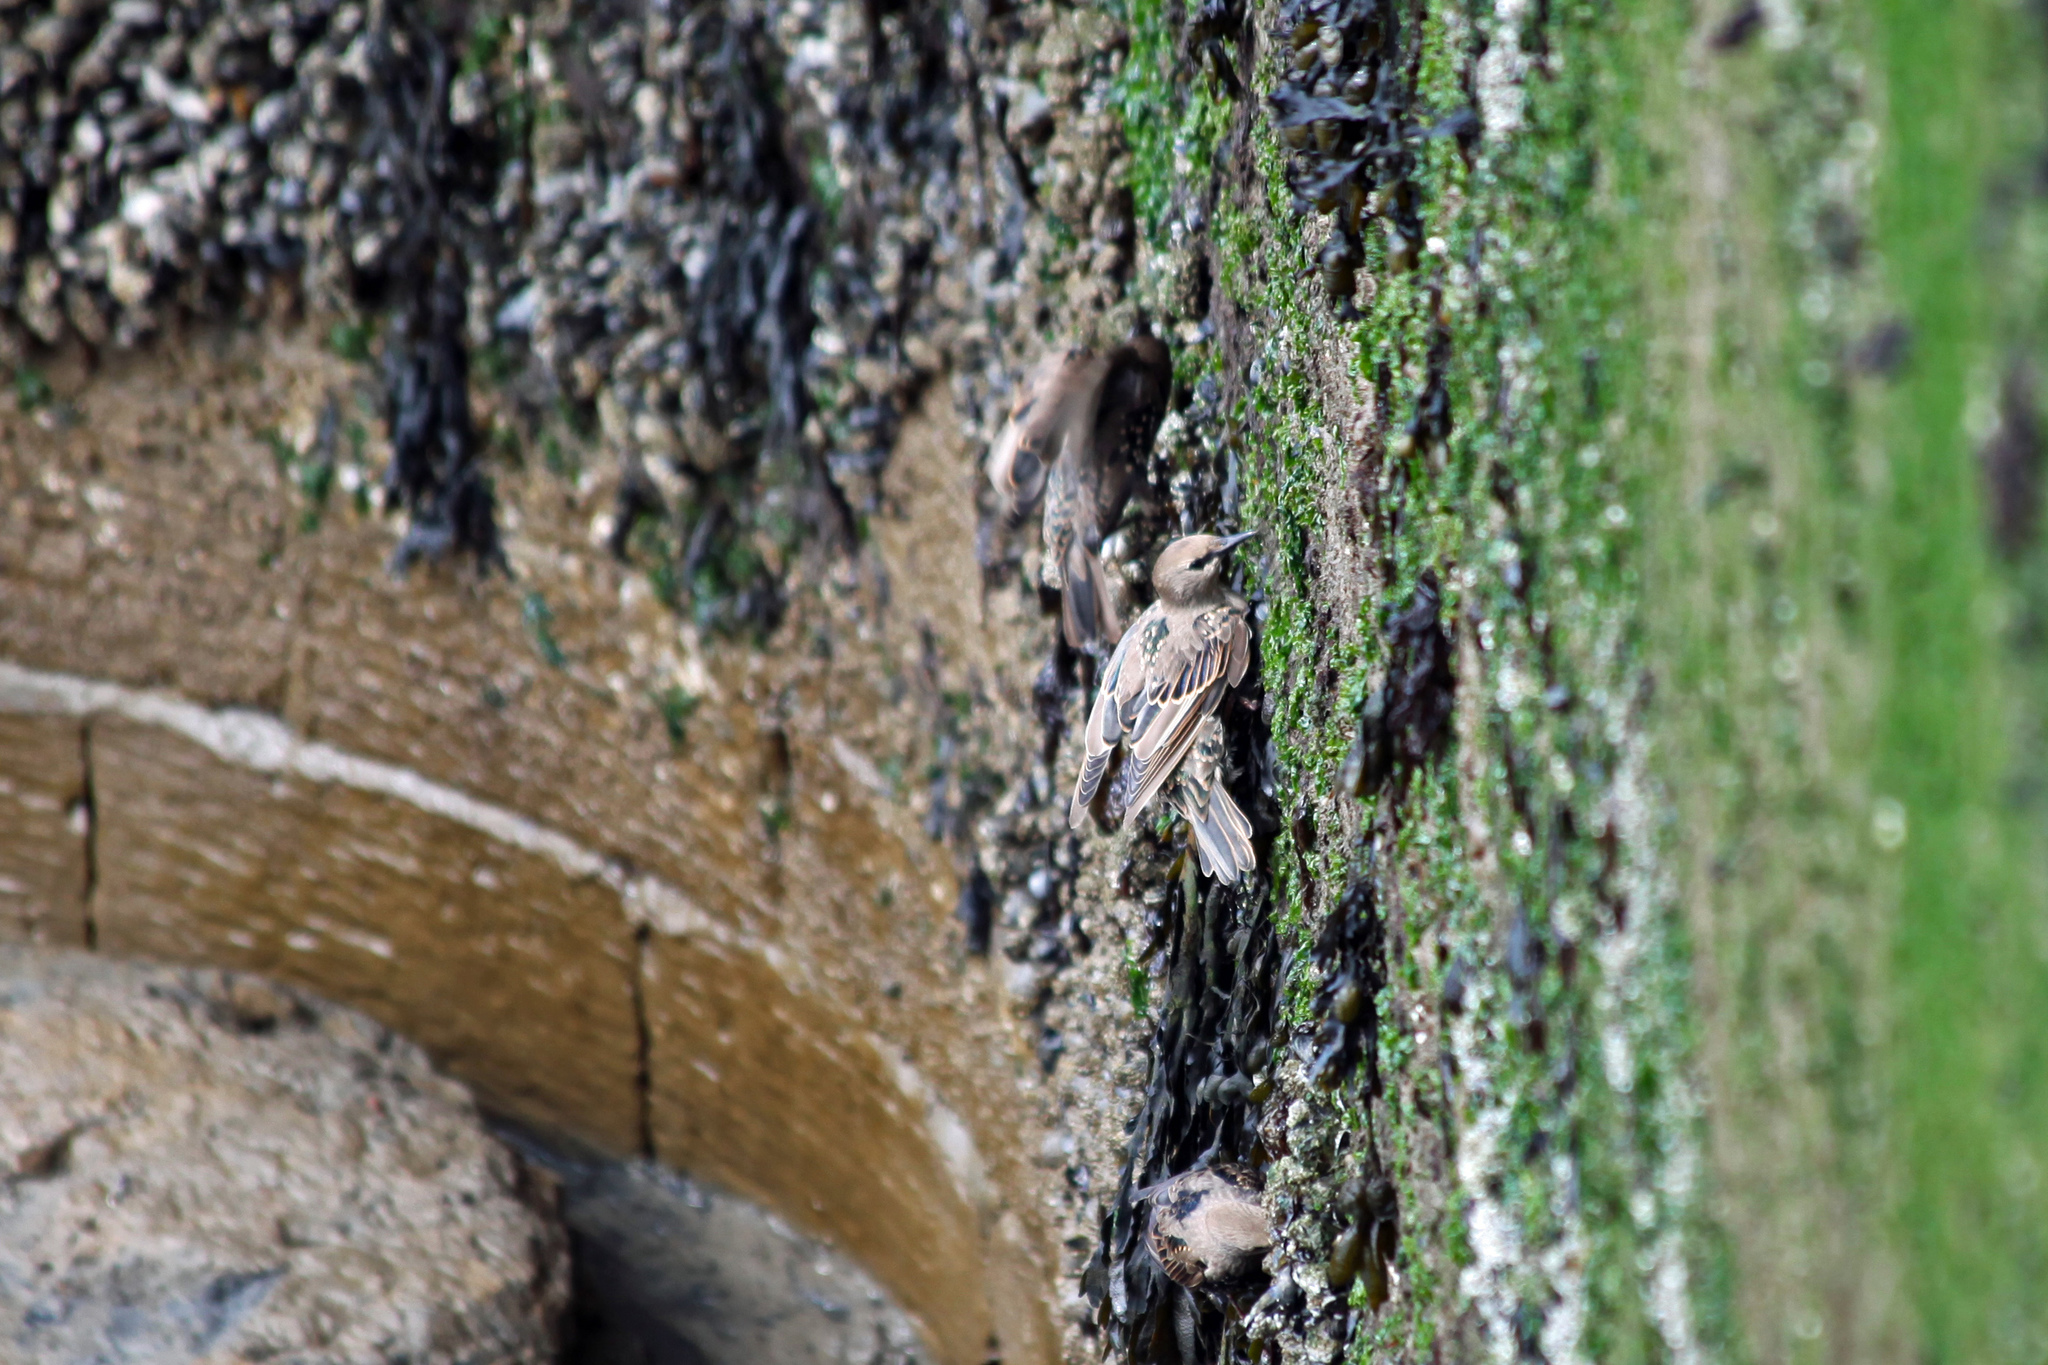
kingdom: Animalia
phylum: Chordata
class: Aves
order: Passeriformes
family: Sturnidae
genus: Sturnus
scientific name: Sturnus vulgaris
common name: Common starling
